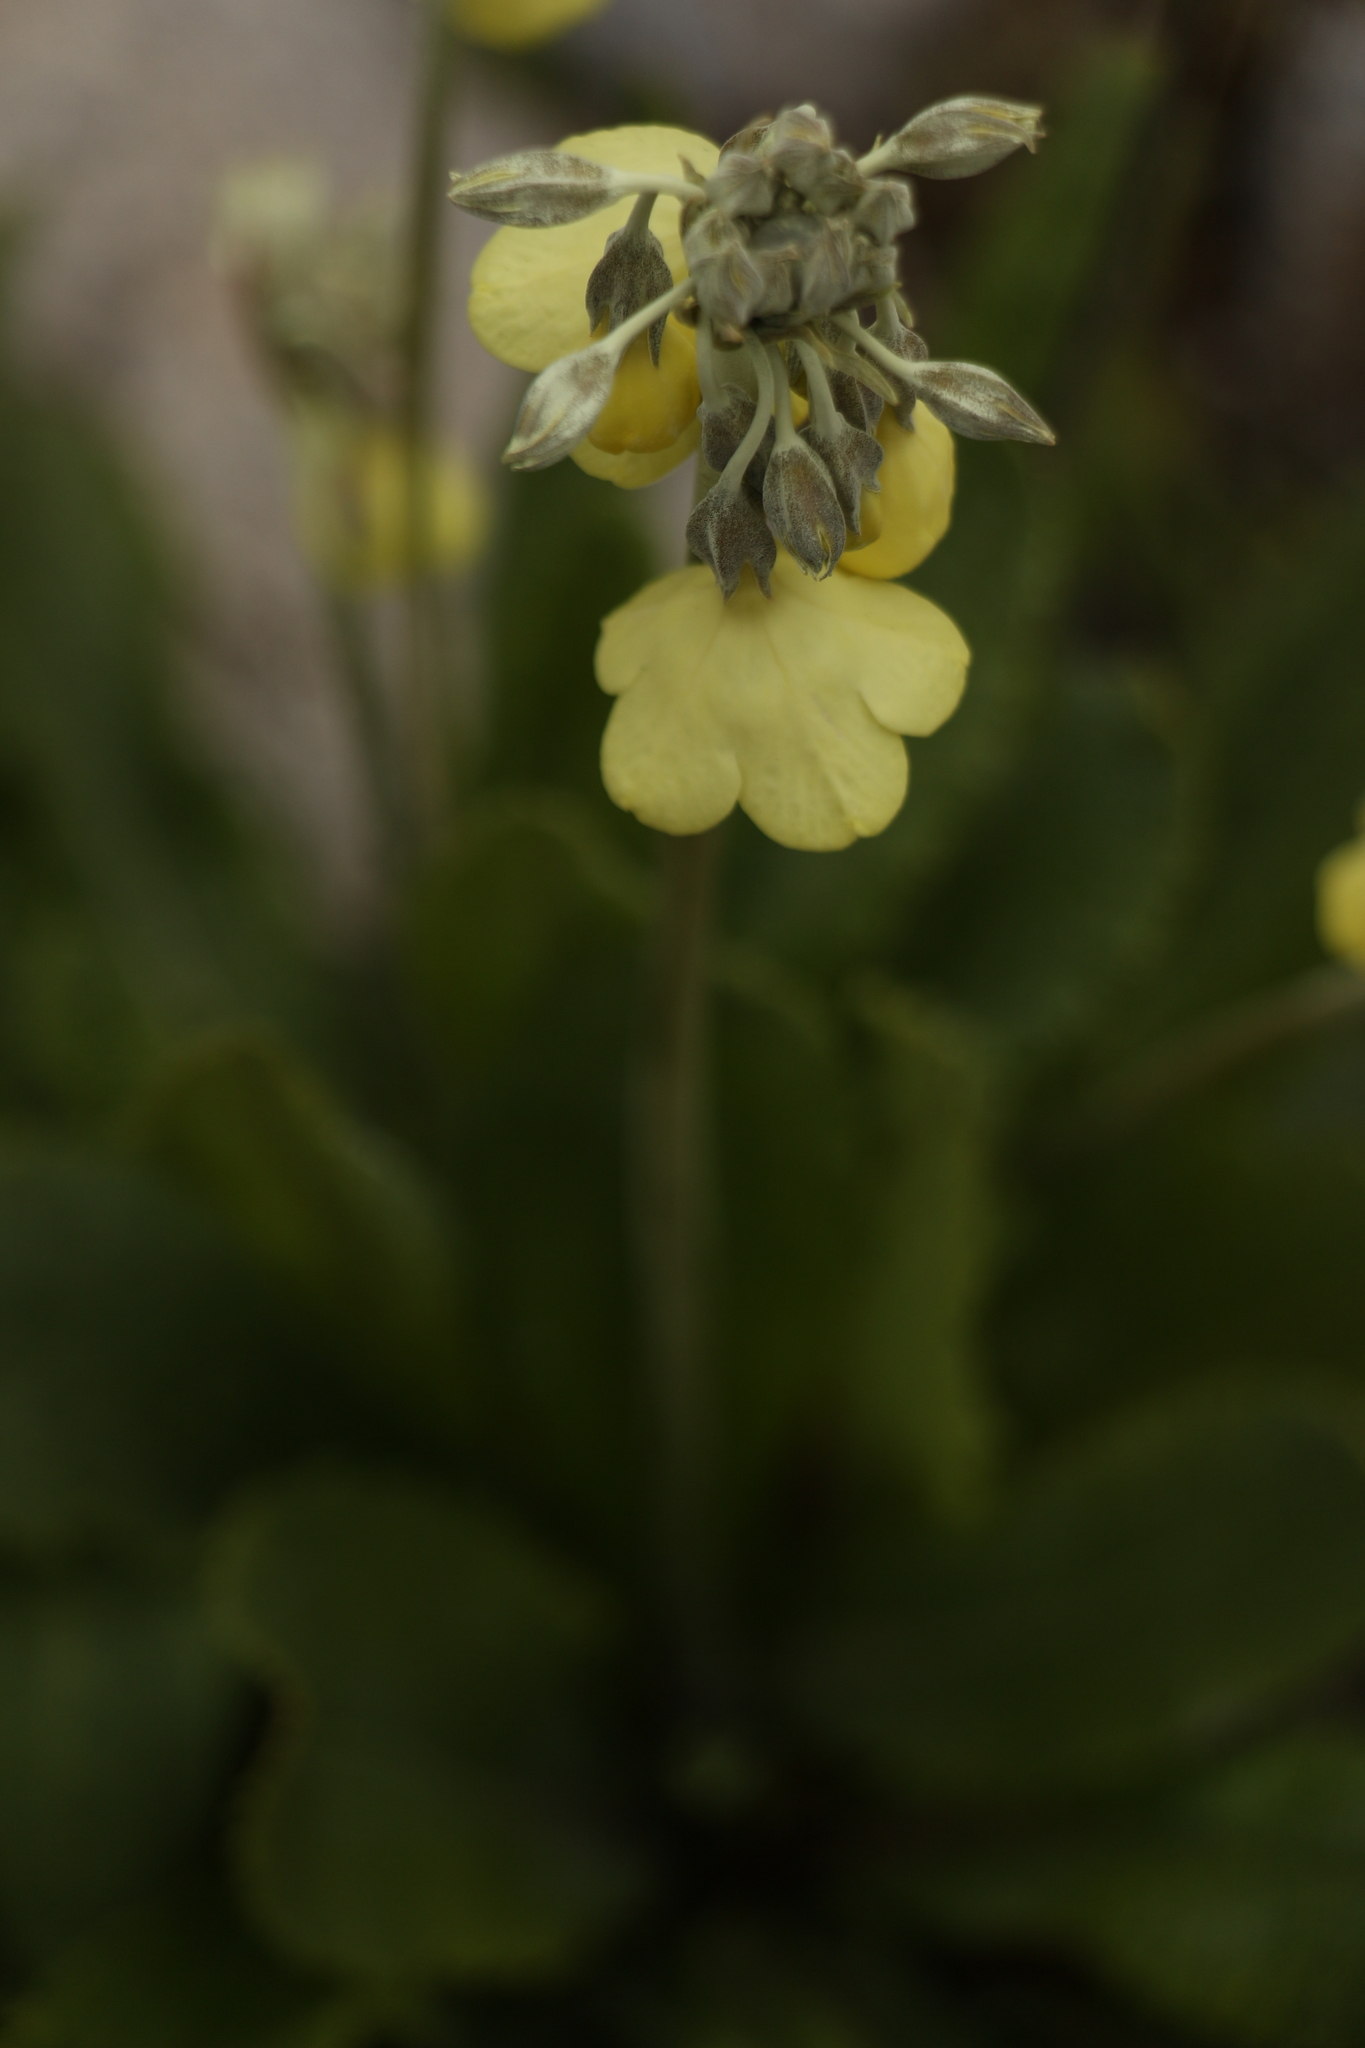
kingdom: Plantae
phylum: Tracheophyta
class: Magnoliopsida
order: Ericales
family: Primulaceae
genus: Primula
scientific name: Primula sikkimensis
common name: Sikkim cowslip
